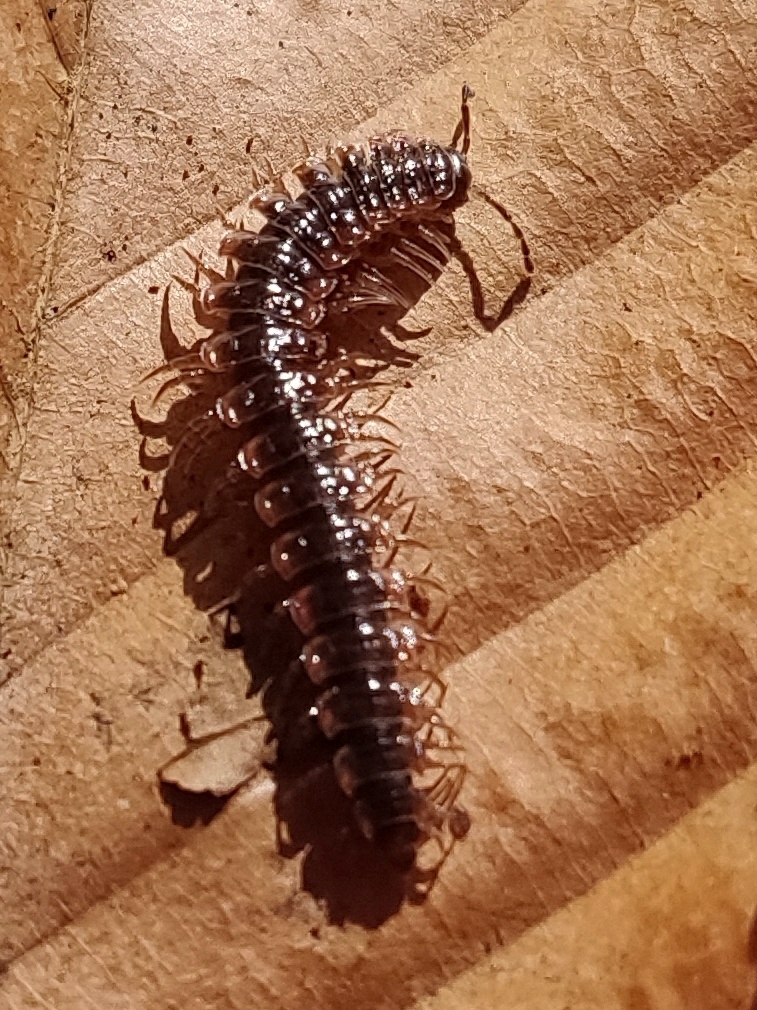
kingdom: Animalia
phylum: Arthropoda
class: Diplopoda
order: Polydesmida
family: Polydesmidae
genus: Pseudopolydesmus
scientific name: Pseudopolydesmus canadensis
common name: Canadian flat-back millipede
